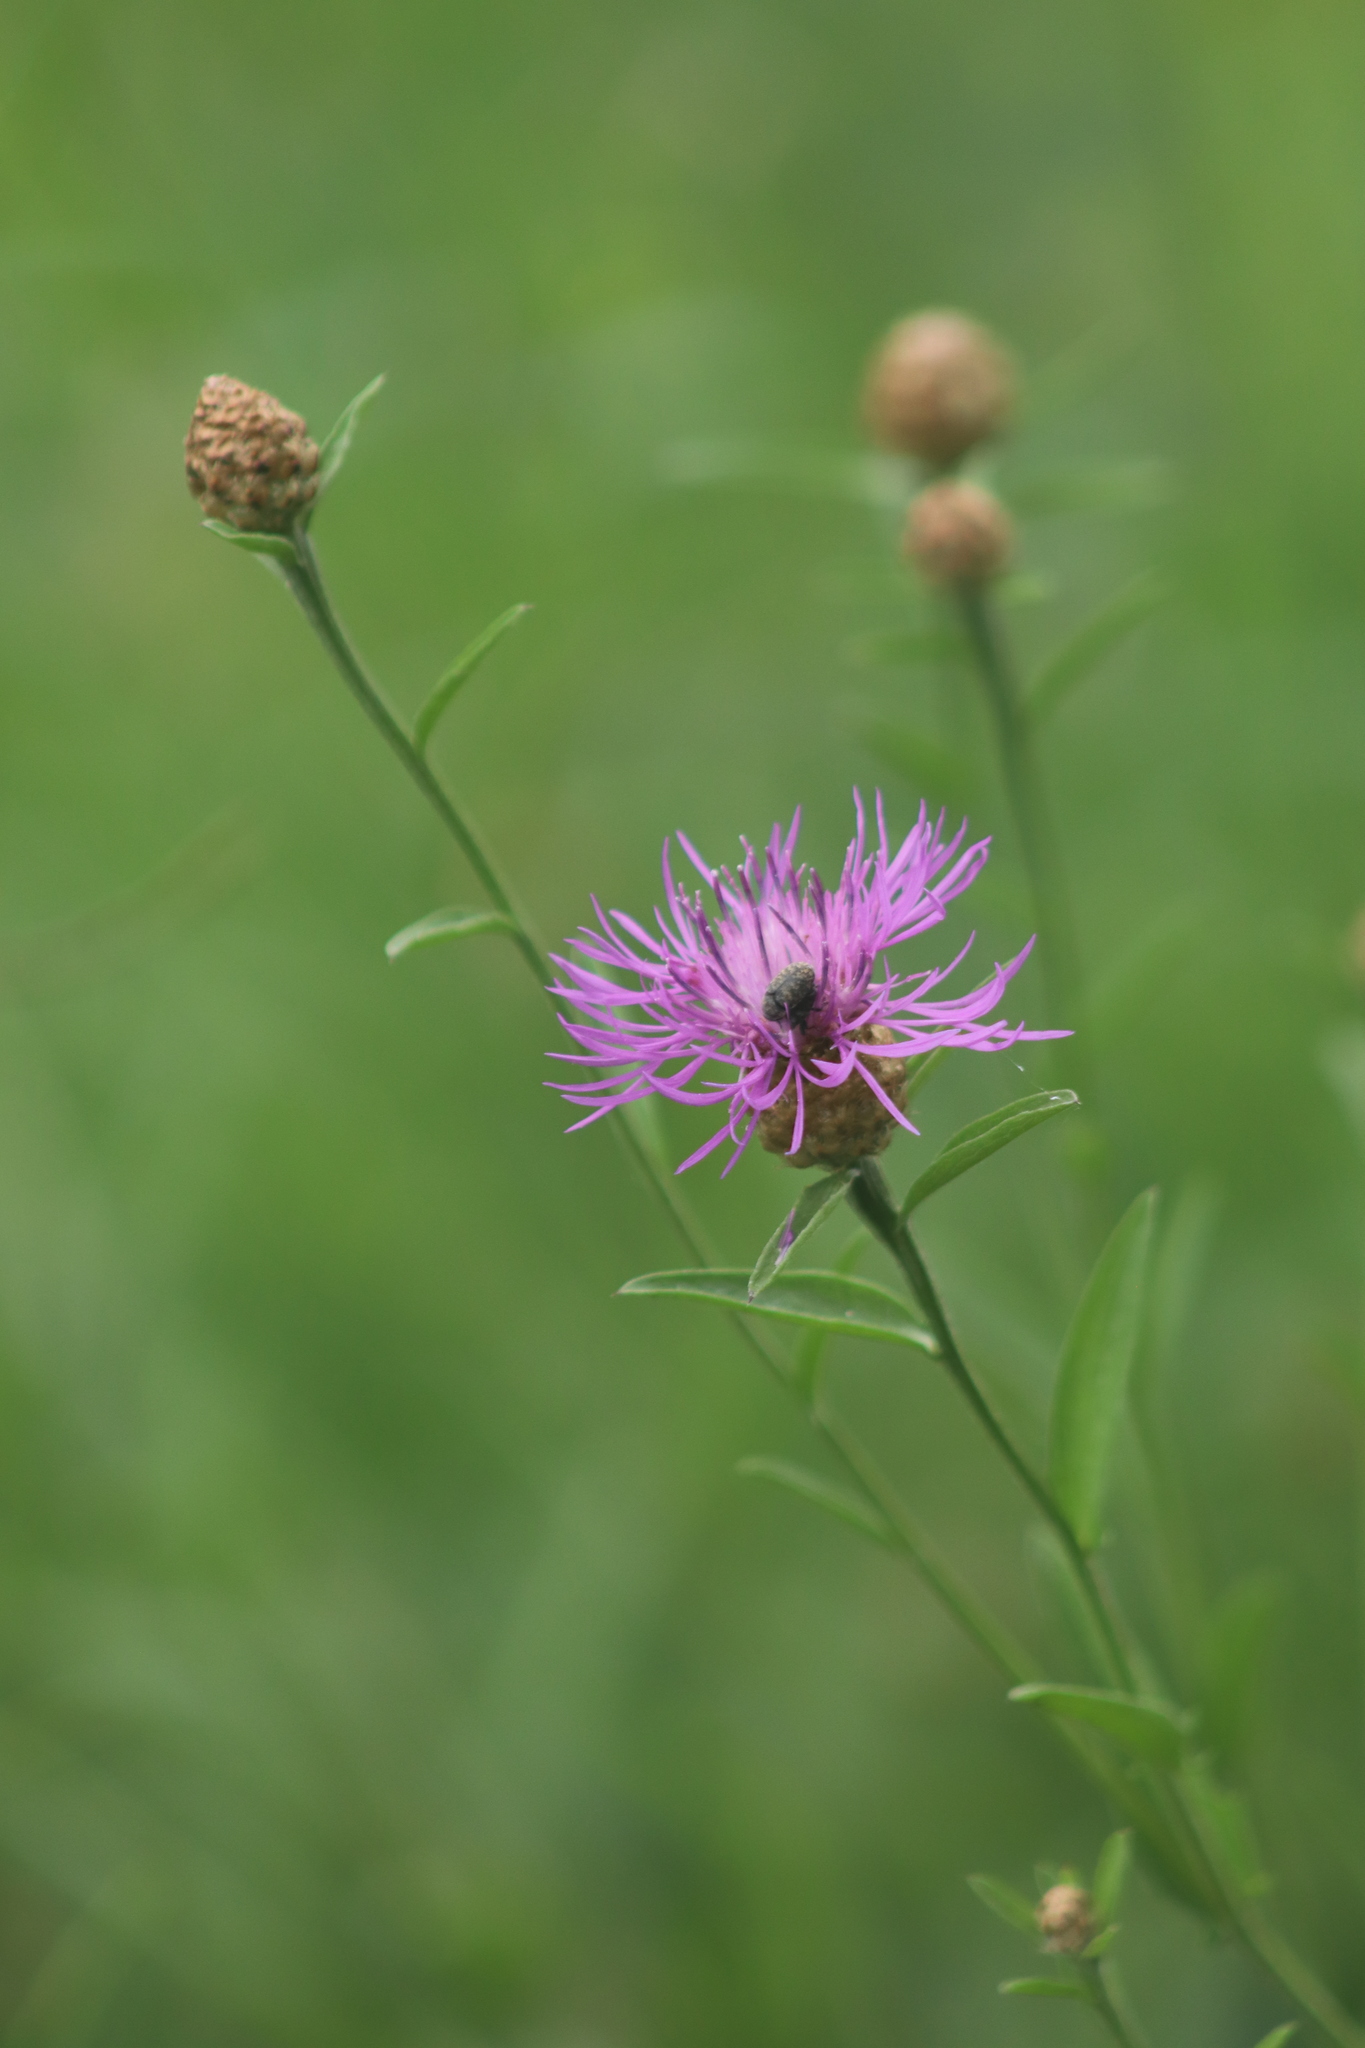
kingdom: Plantae
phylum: Tracheophyta
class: Magnoliopsida
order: Asterales
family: Asteraceae
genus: Centaurea
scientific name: Centaurea stoebe
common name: Spotted knapweed
